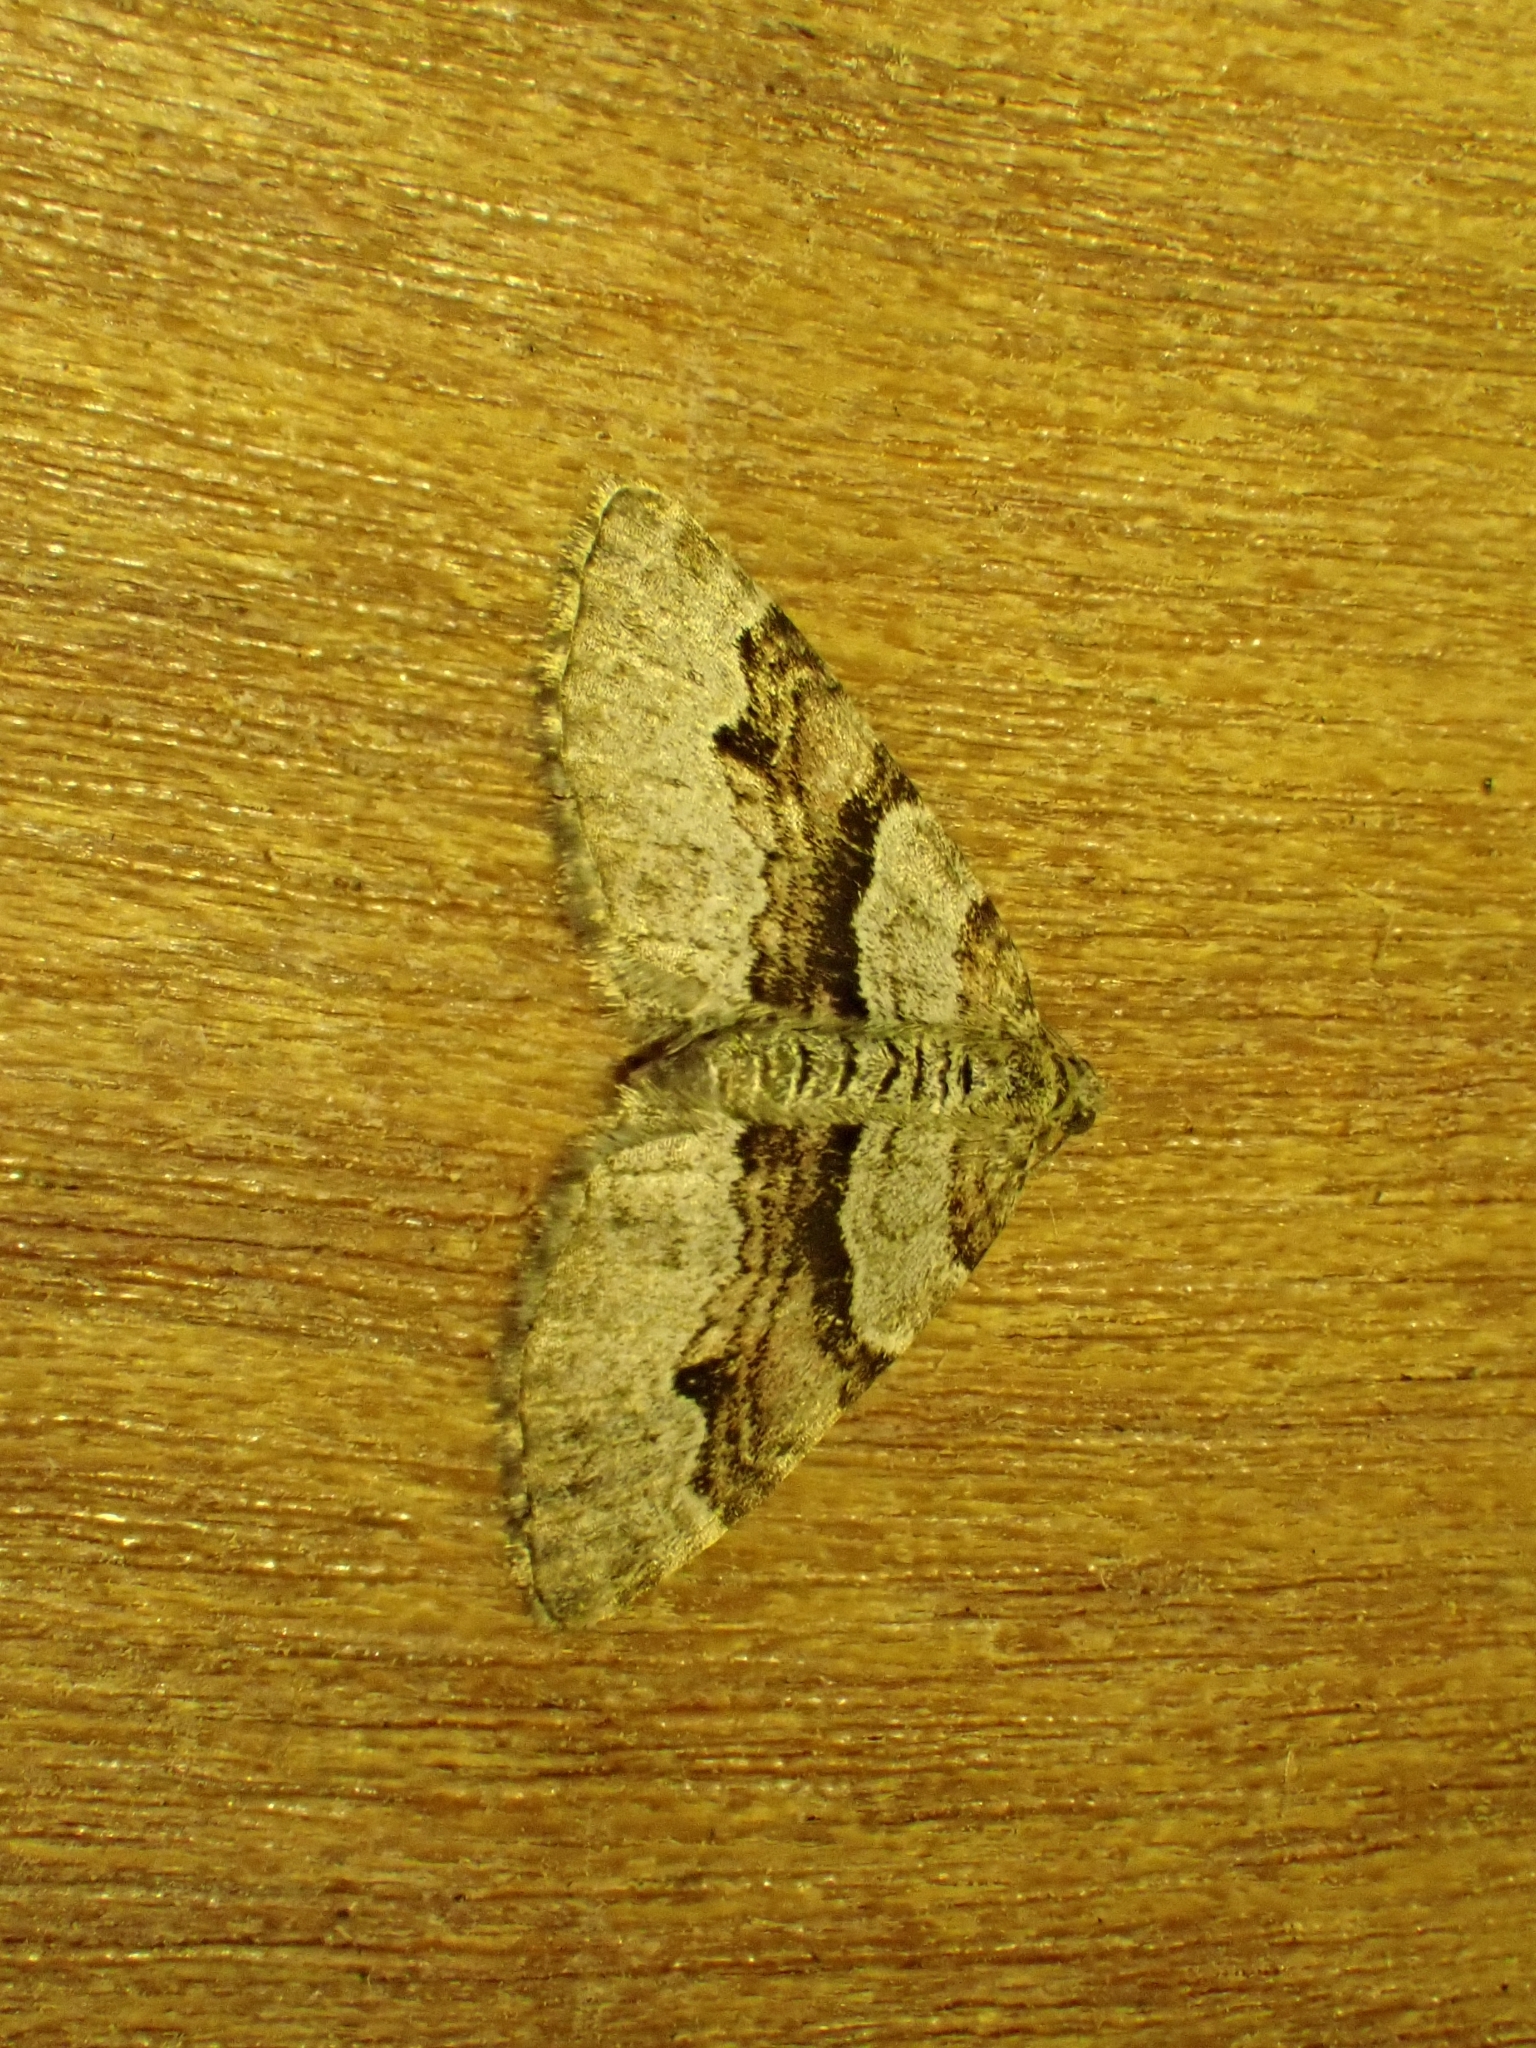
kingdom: Animalia
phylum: Arthropoda
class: Insecta
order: Lepidoptera
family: Geometridae
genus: Xanthorhoe
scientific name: Xanthorhoe designata
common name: Flame carpet
